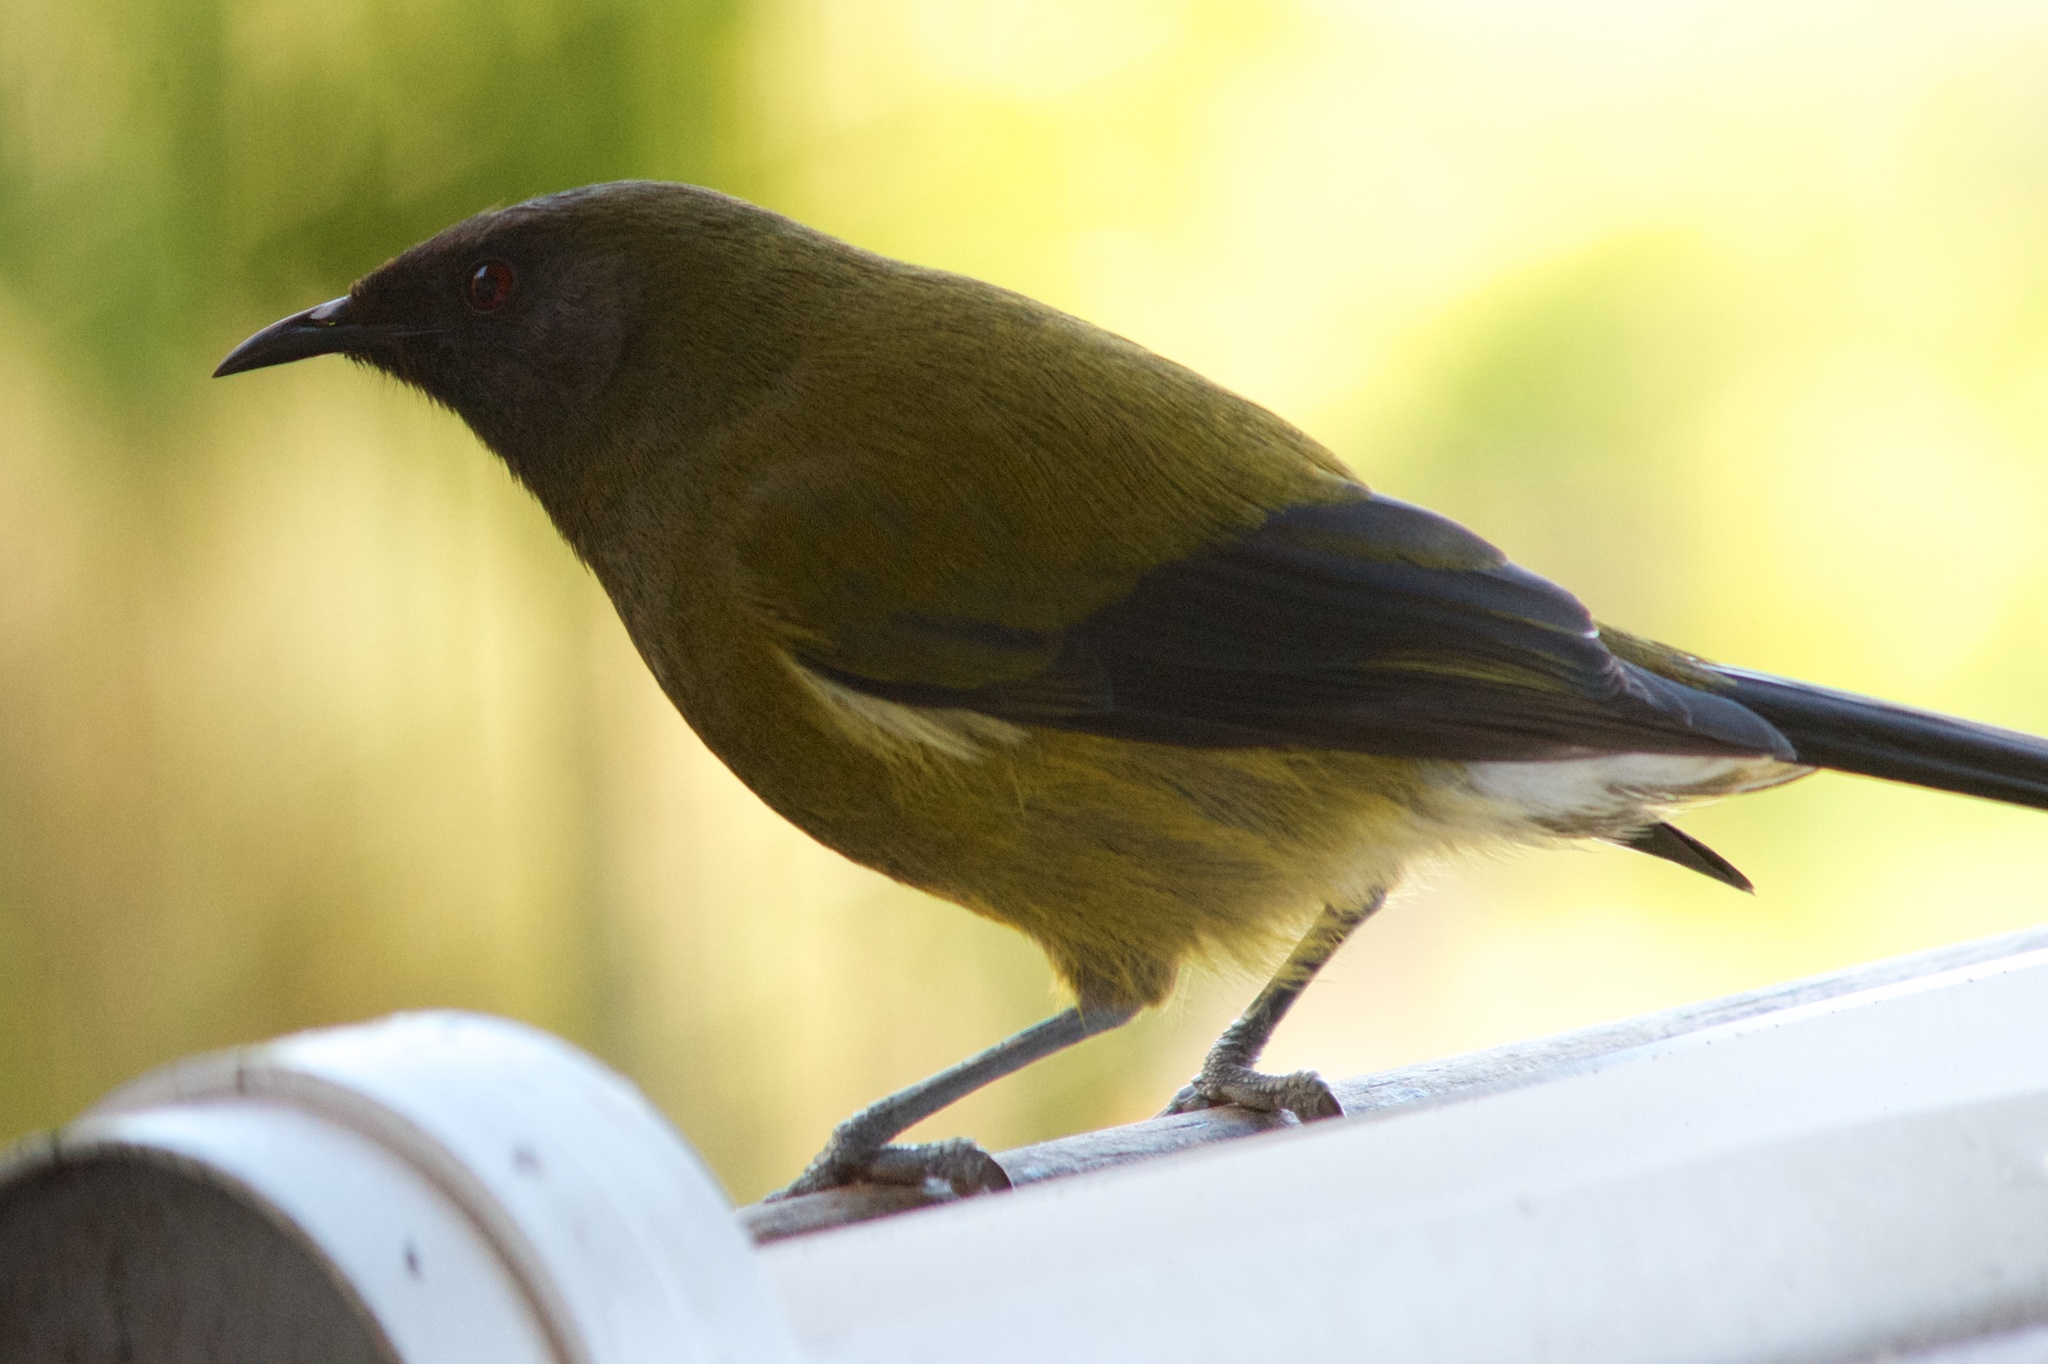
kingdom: Animalia
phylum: Chordata
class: Aves
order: Passeriformes
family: Meliphagidae
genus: Anthornis
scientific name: Anthornis melanura
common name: New zealand bellbird
